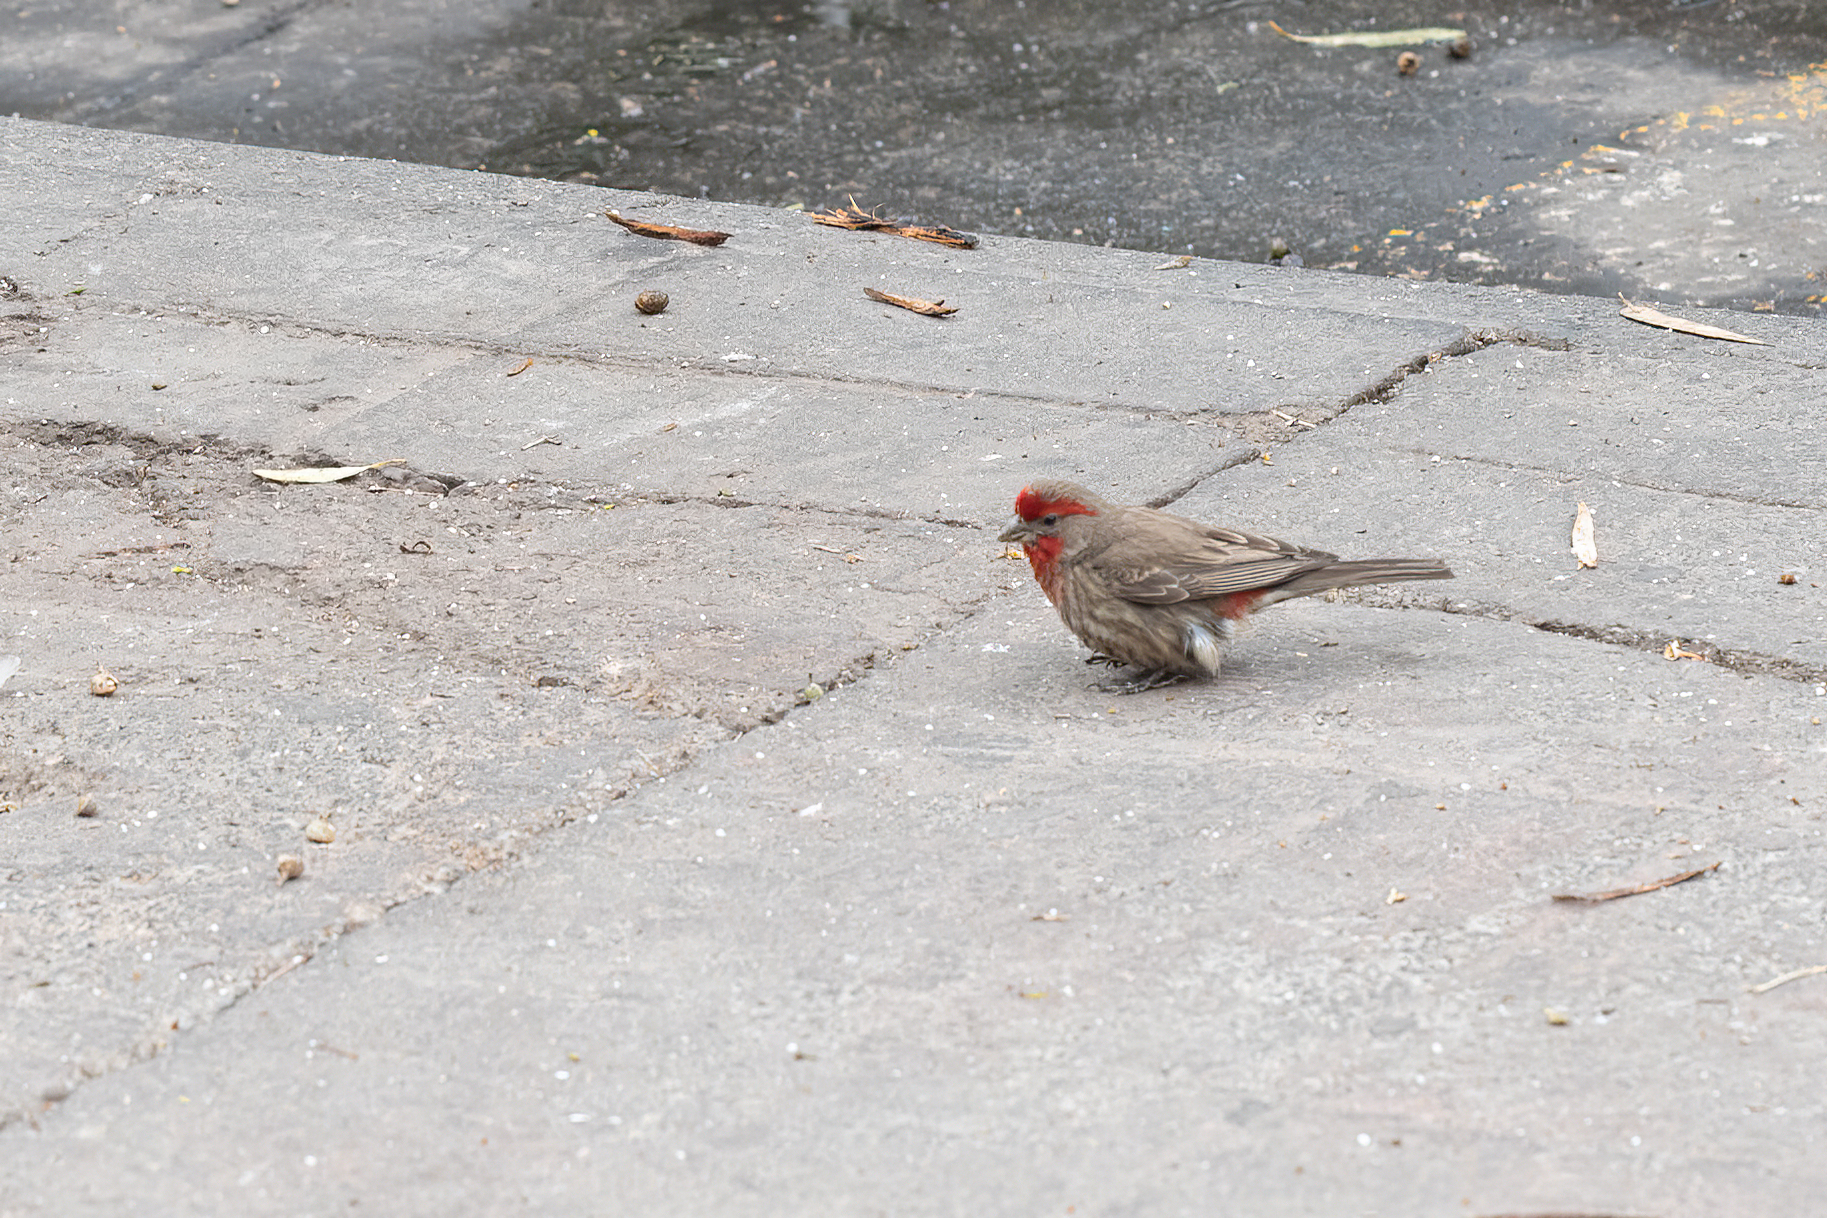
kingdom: Animalia
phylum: Chordata
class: Aves
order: Passeriformes
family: Fringillidae
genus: Haemorhous
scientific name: Haemorhous mexicanus
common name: House finch
